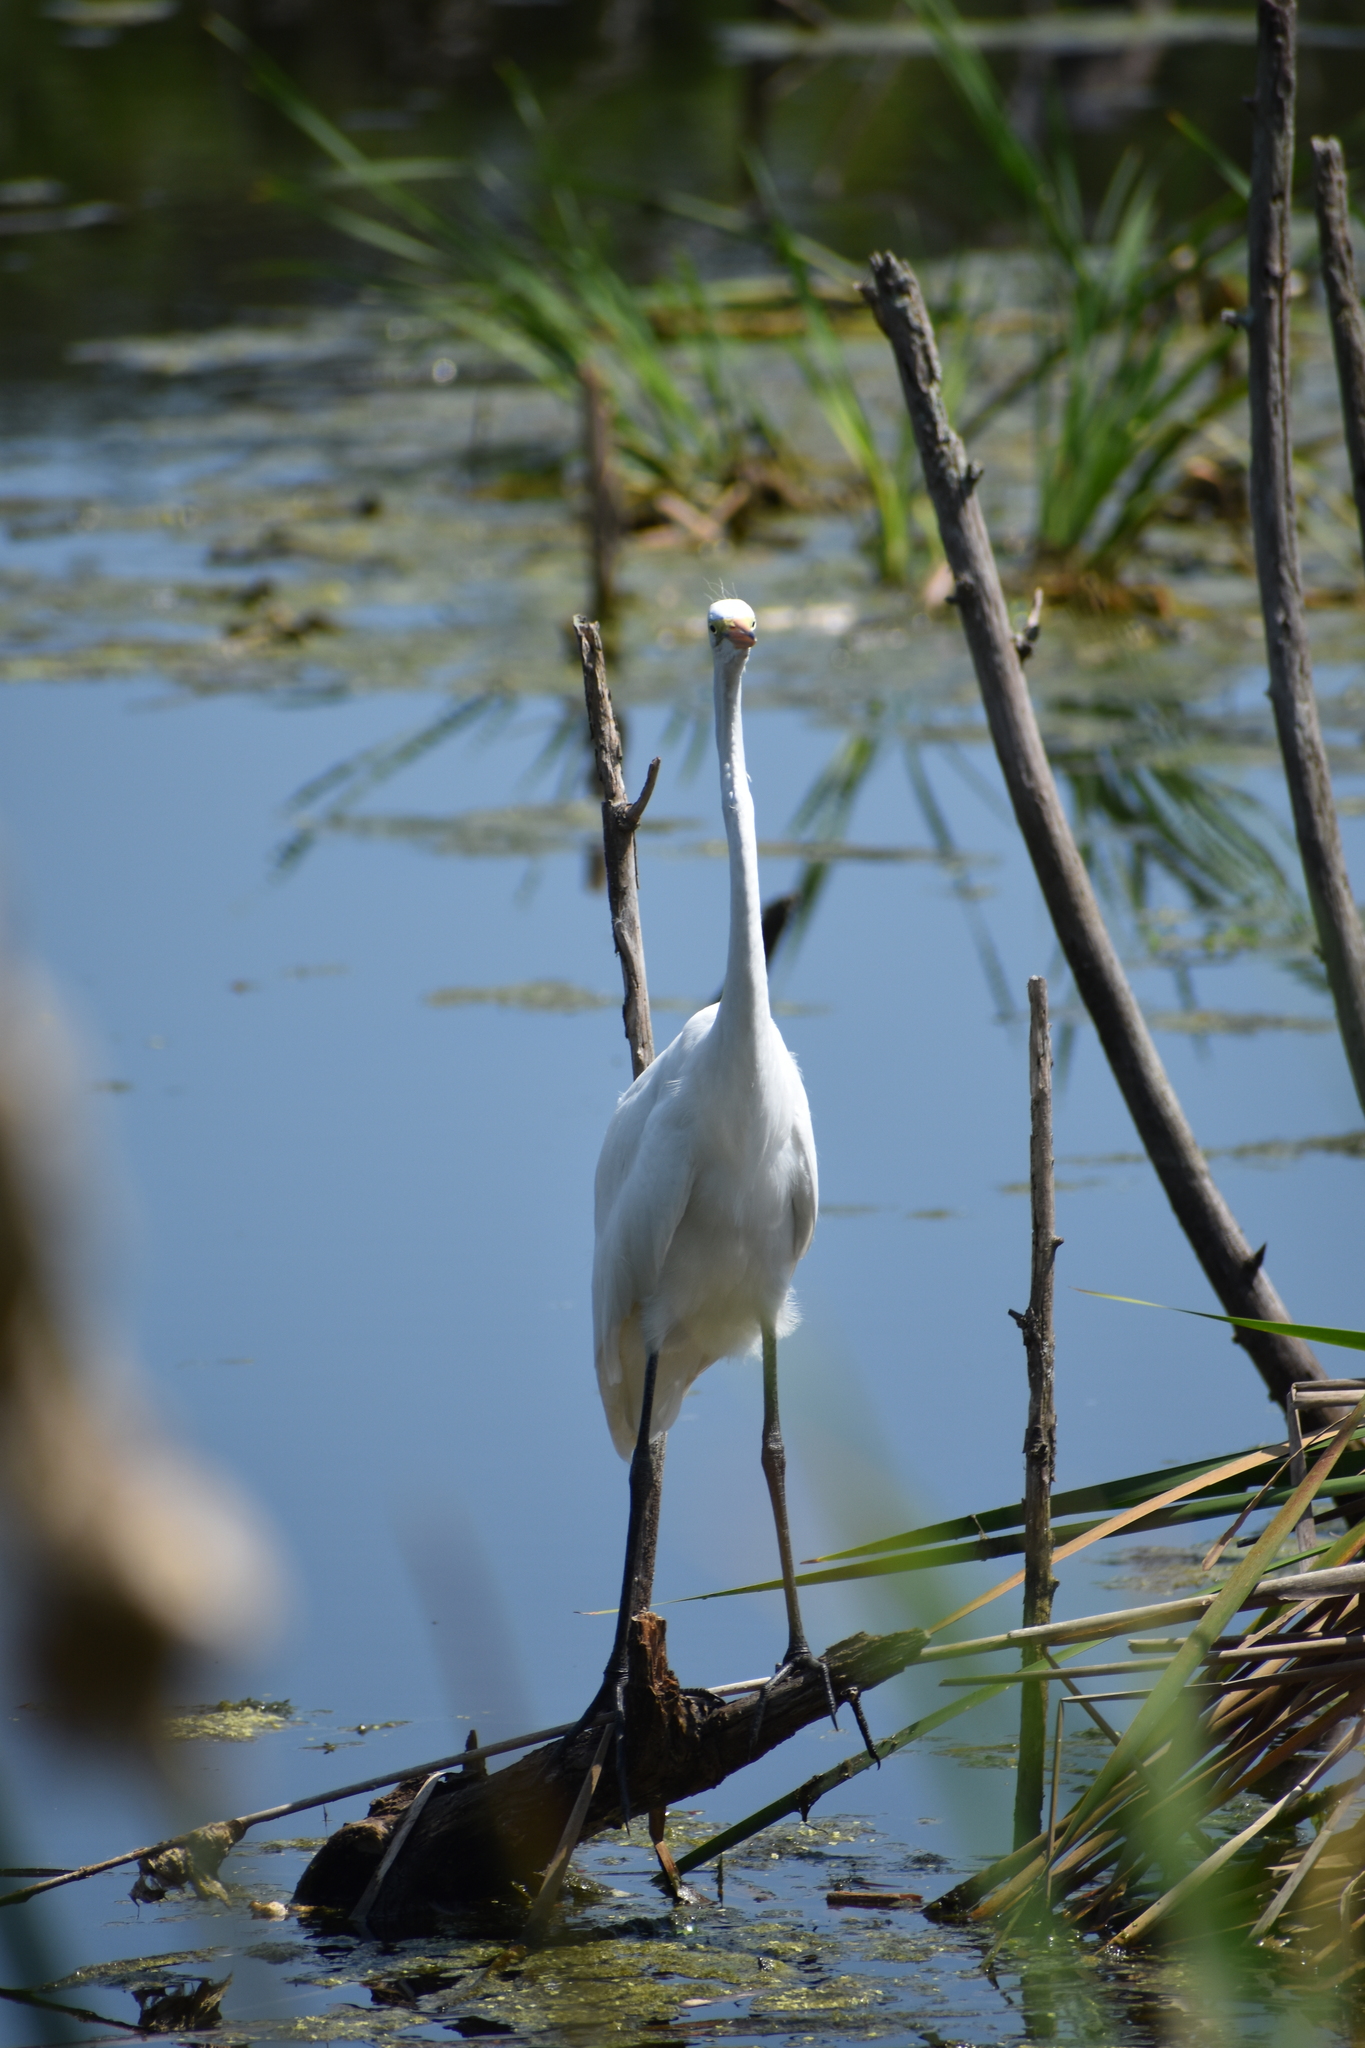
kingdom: Animalia
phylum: Chordata
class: Aves
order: Pelecaniformes
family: Ardeidae
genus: Ardea
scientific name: Ardea alba
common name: Great egret
